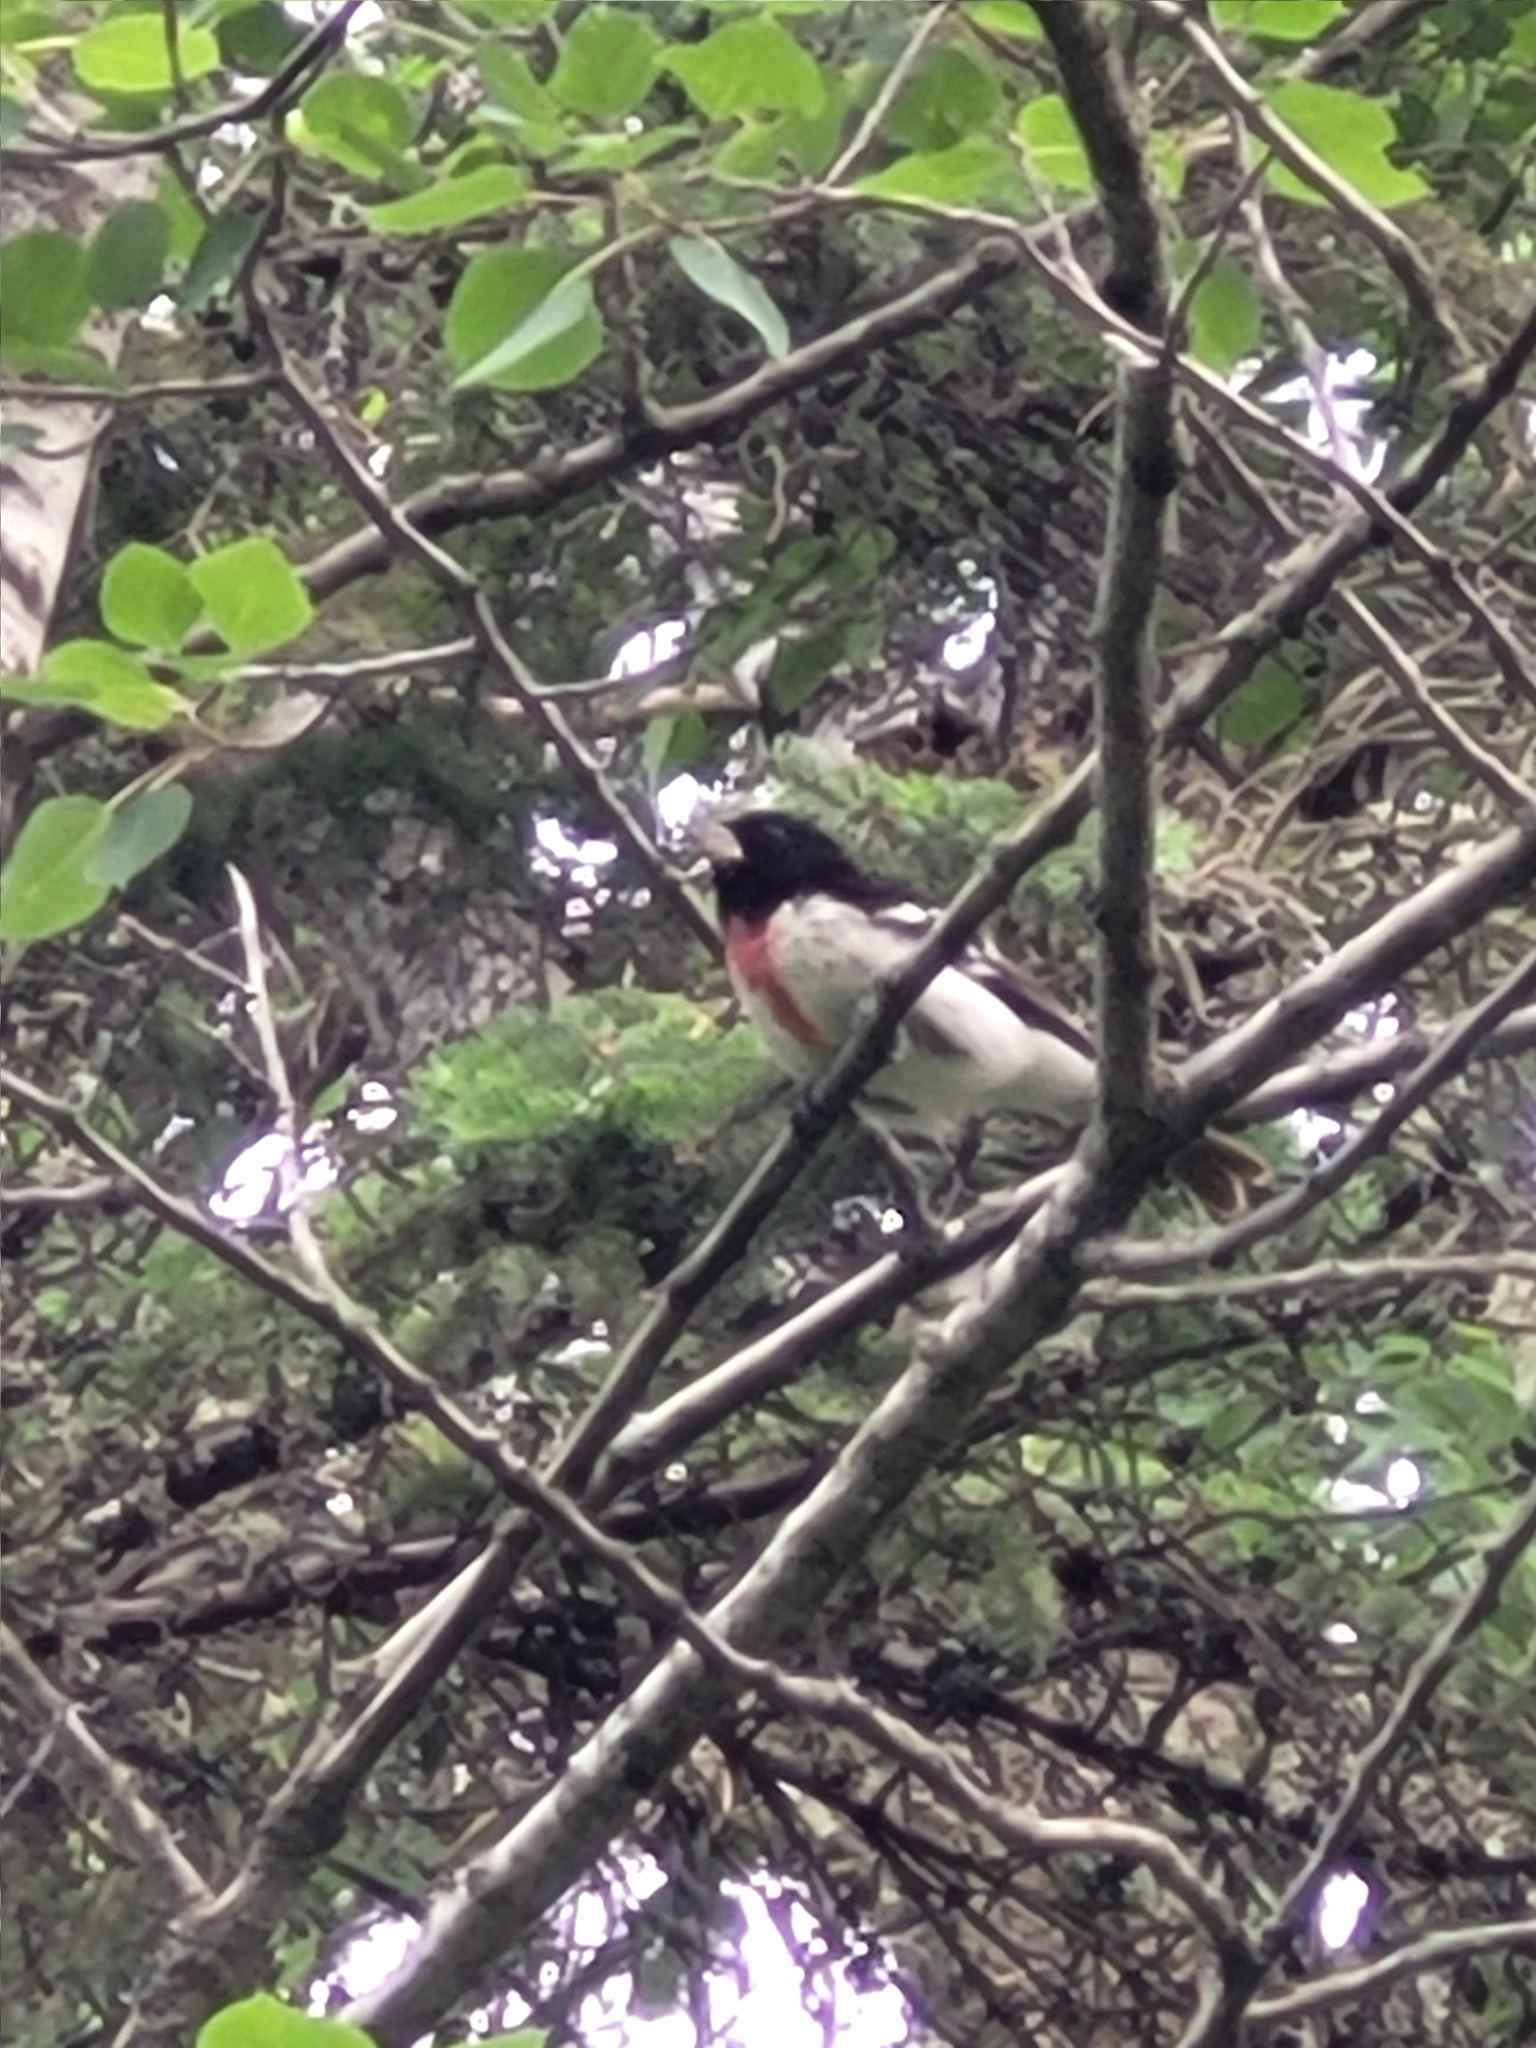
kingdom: Animalia
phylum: Chordata
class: Aves
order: Passeriformes
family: Cardinalidae
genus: Pheucticus
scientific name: Pheucticus ludovicianus
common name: Rose-breasted grosbeak
